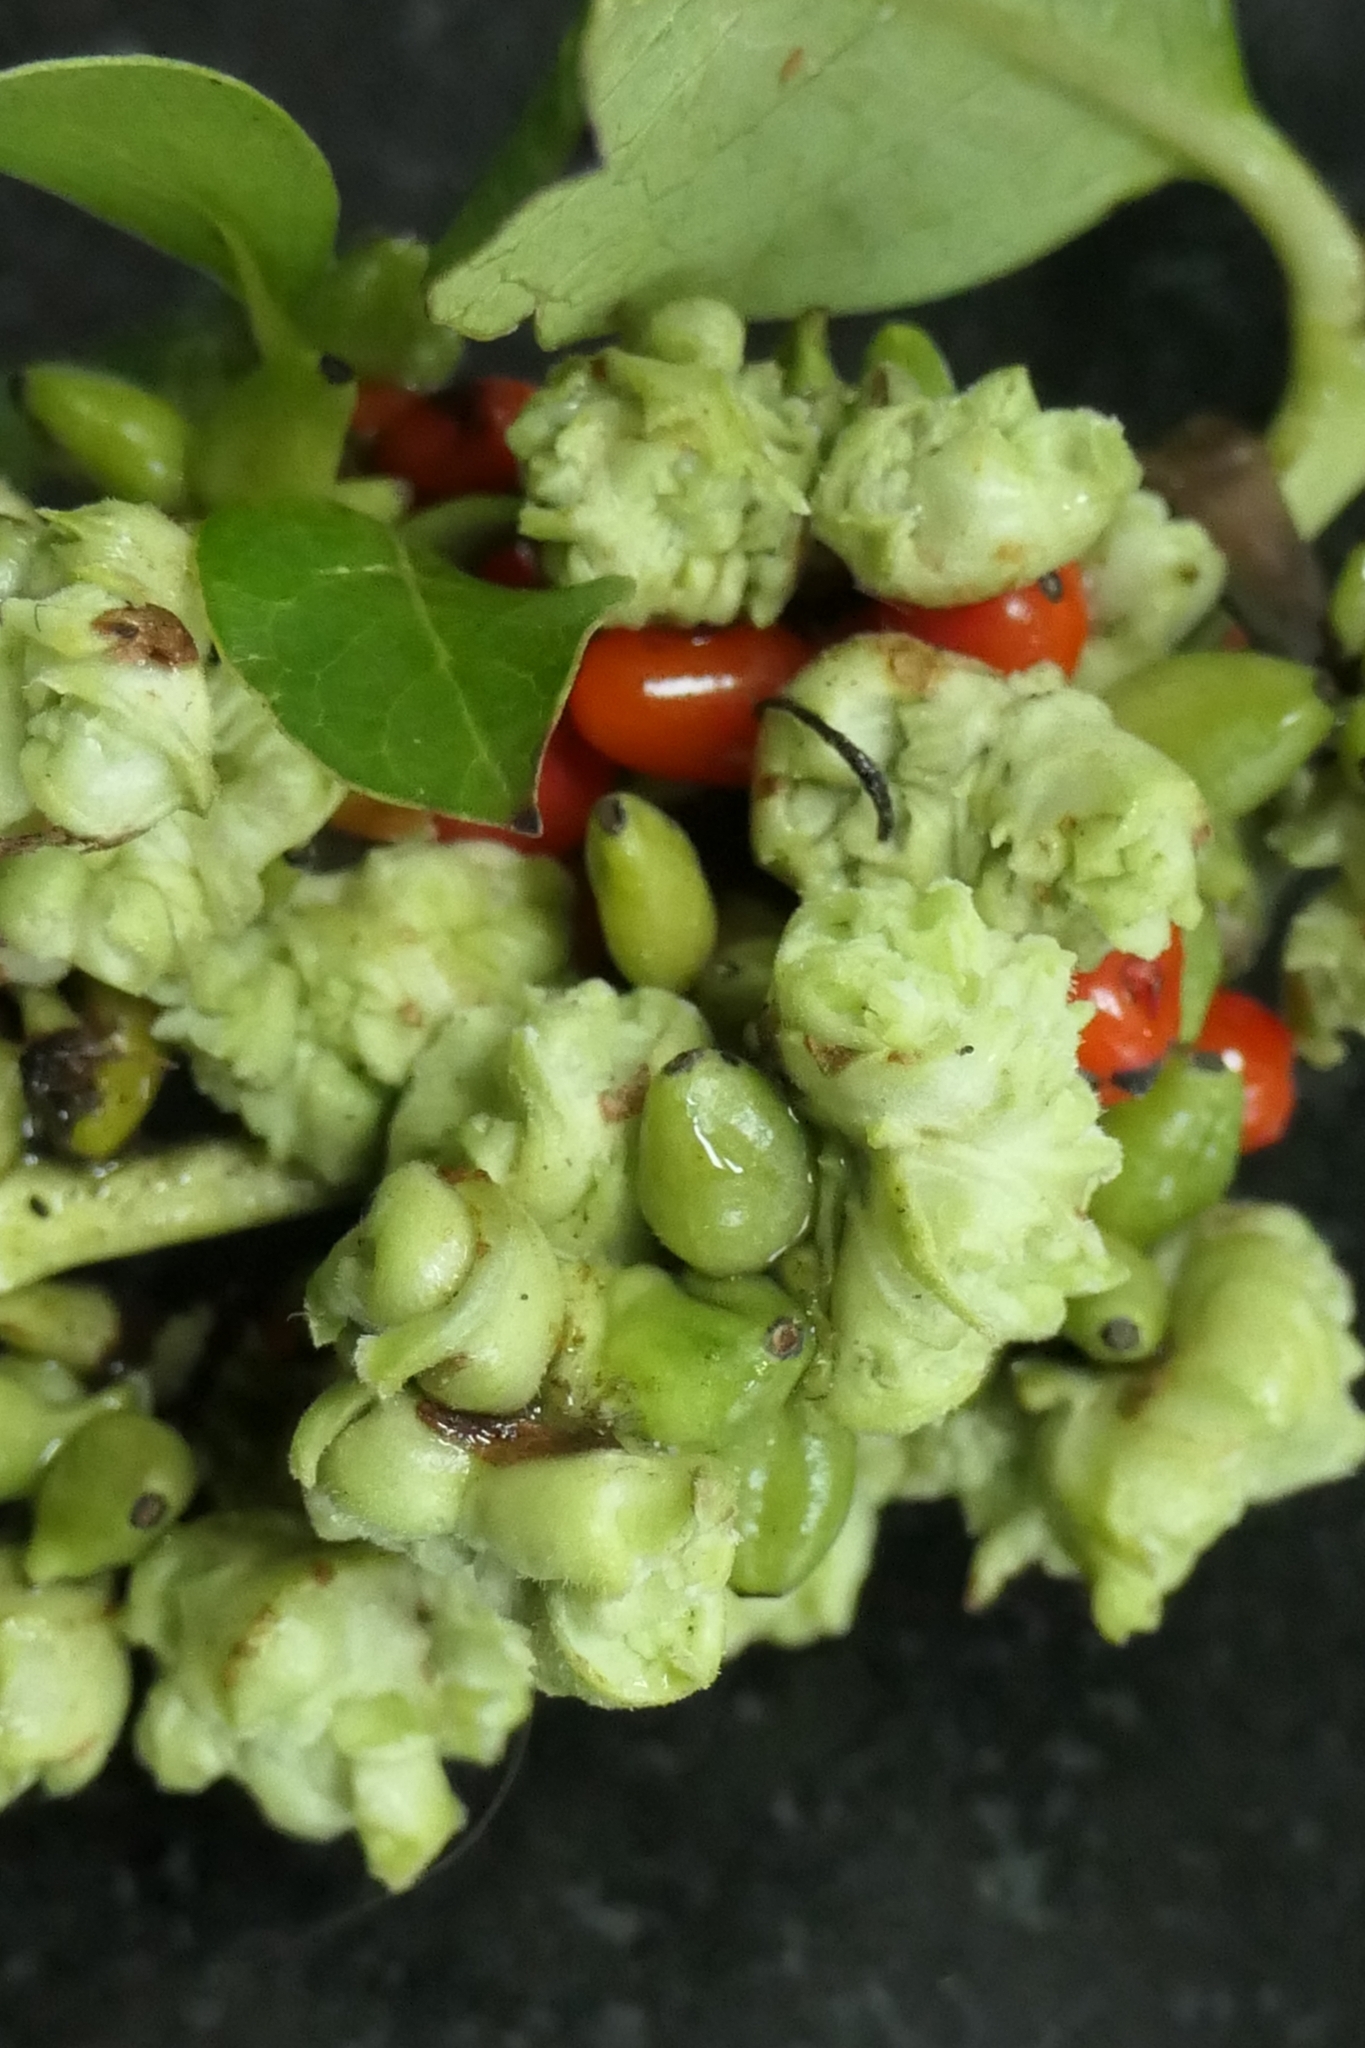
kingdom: Animalia
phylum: Arthropoda
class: Arachnida
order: Trombidiformes
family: Eriophyidae
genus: Acalitus
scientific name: Acalitus
